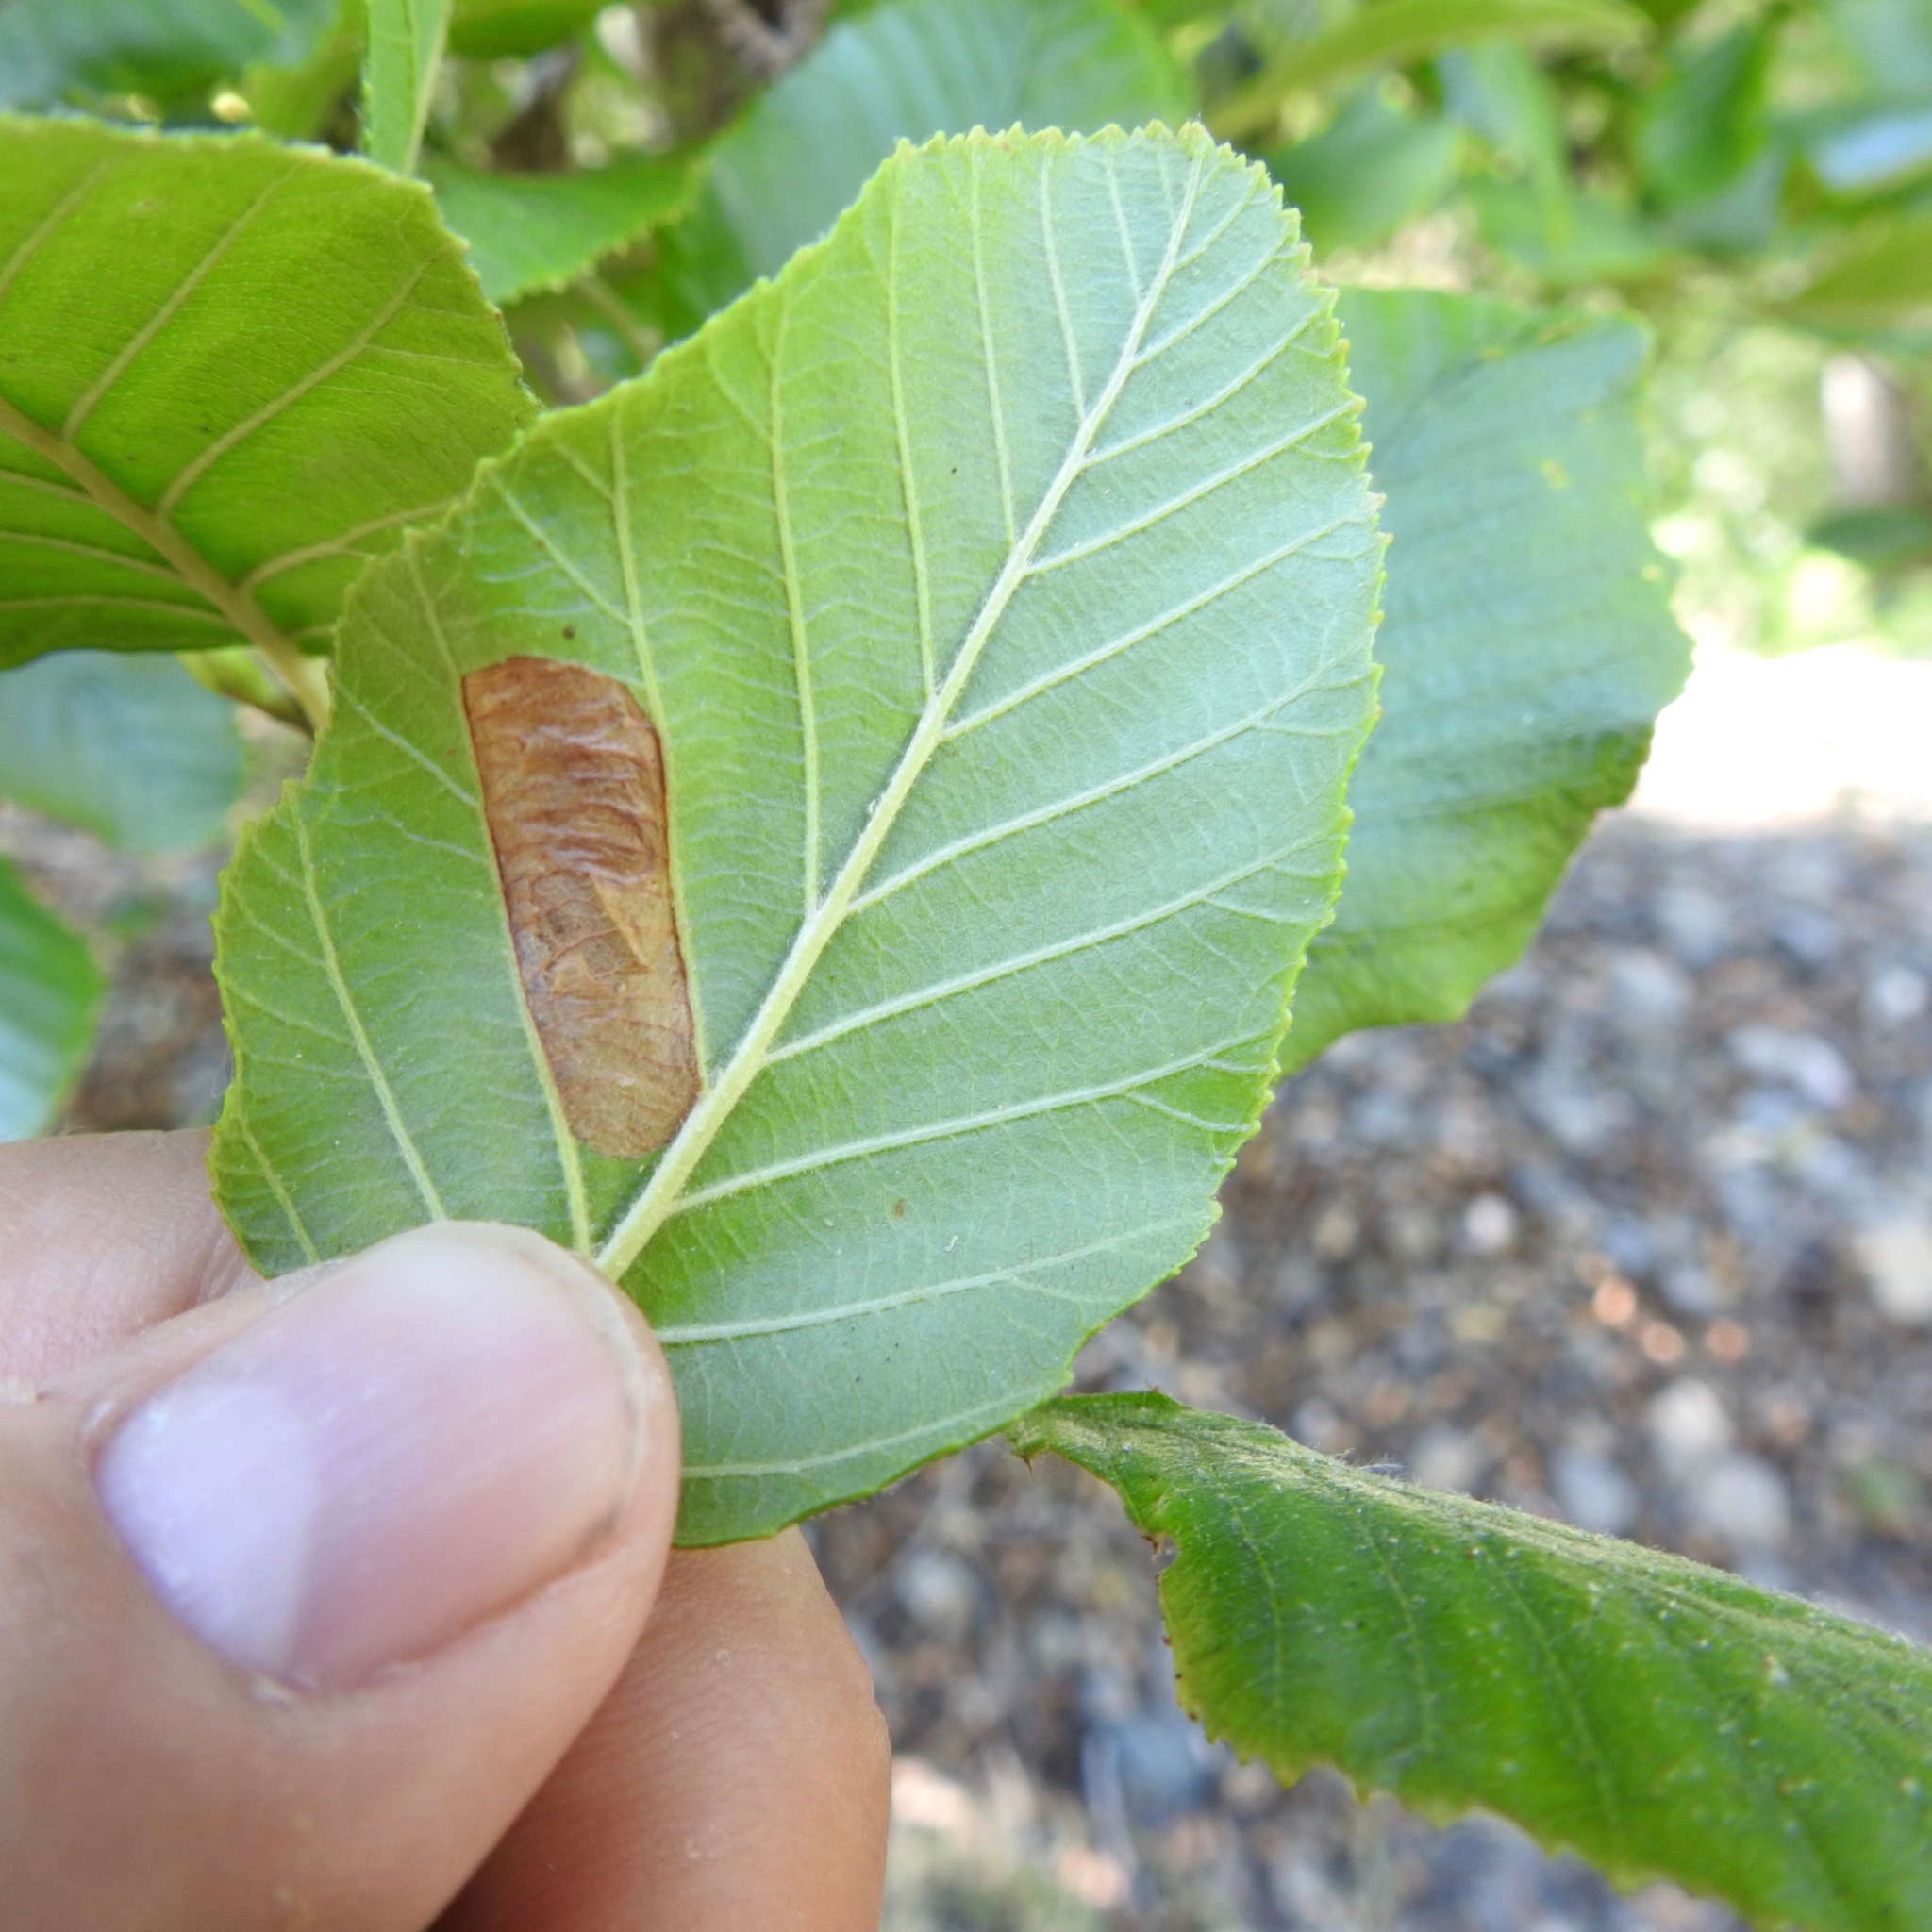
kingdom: Animalia
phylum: Arthropoda
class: Insecta
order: Hymenoptera
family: Tenthredinidae
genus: Fenusa
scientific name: Fenusa dohrnii
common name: European alder leafminer
